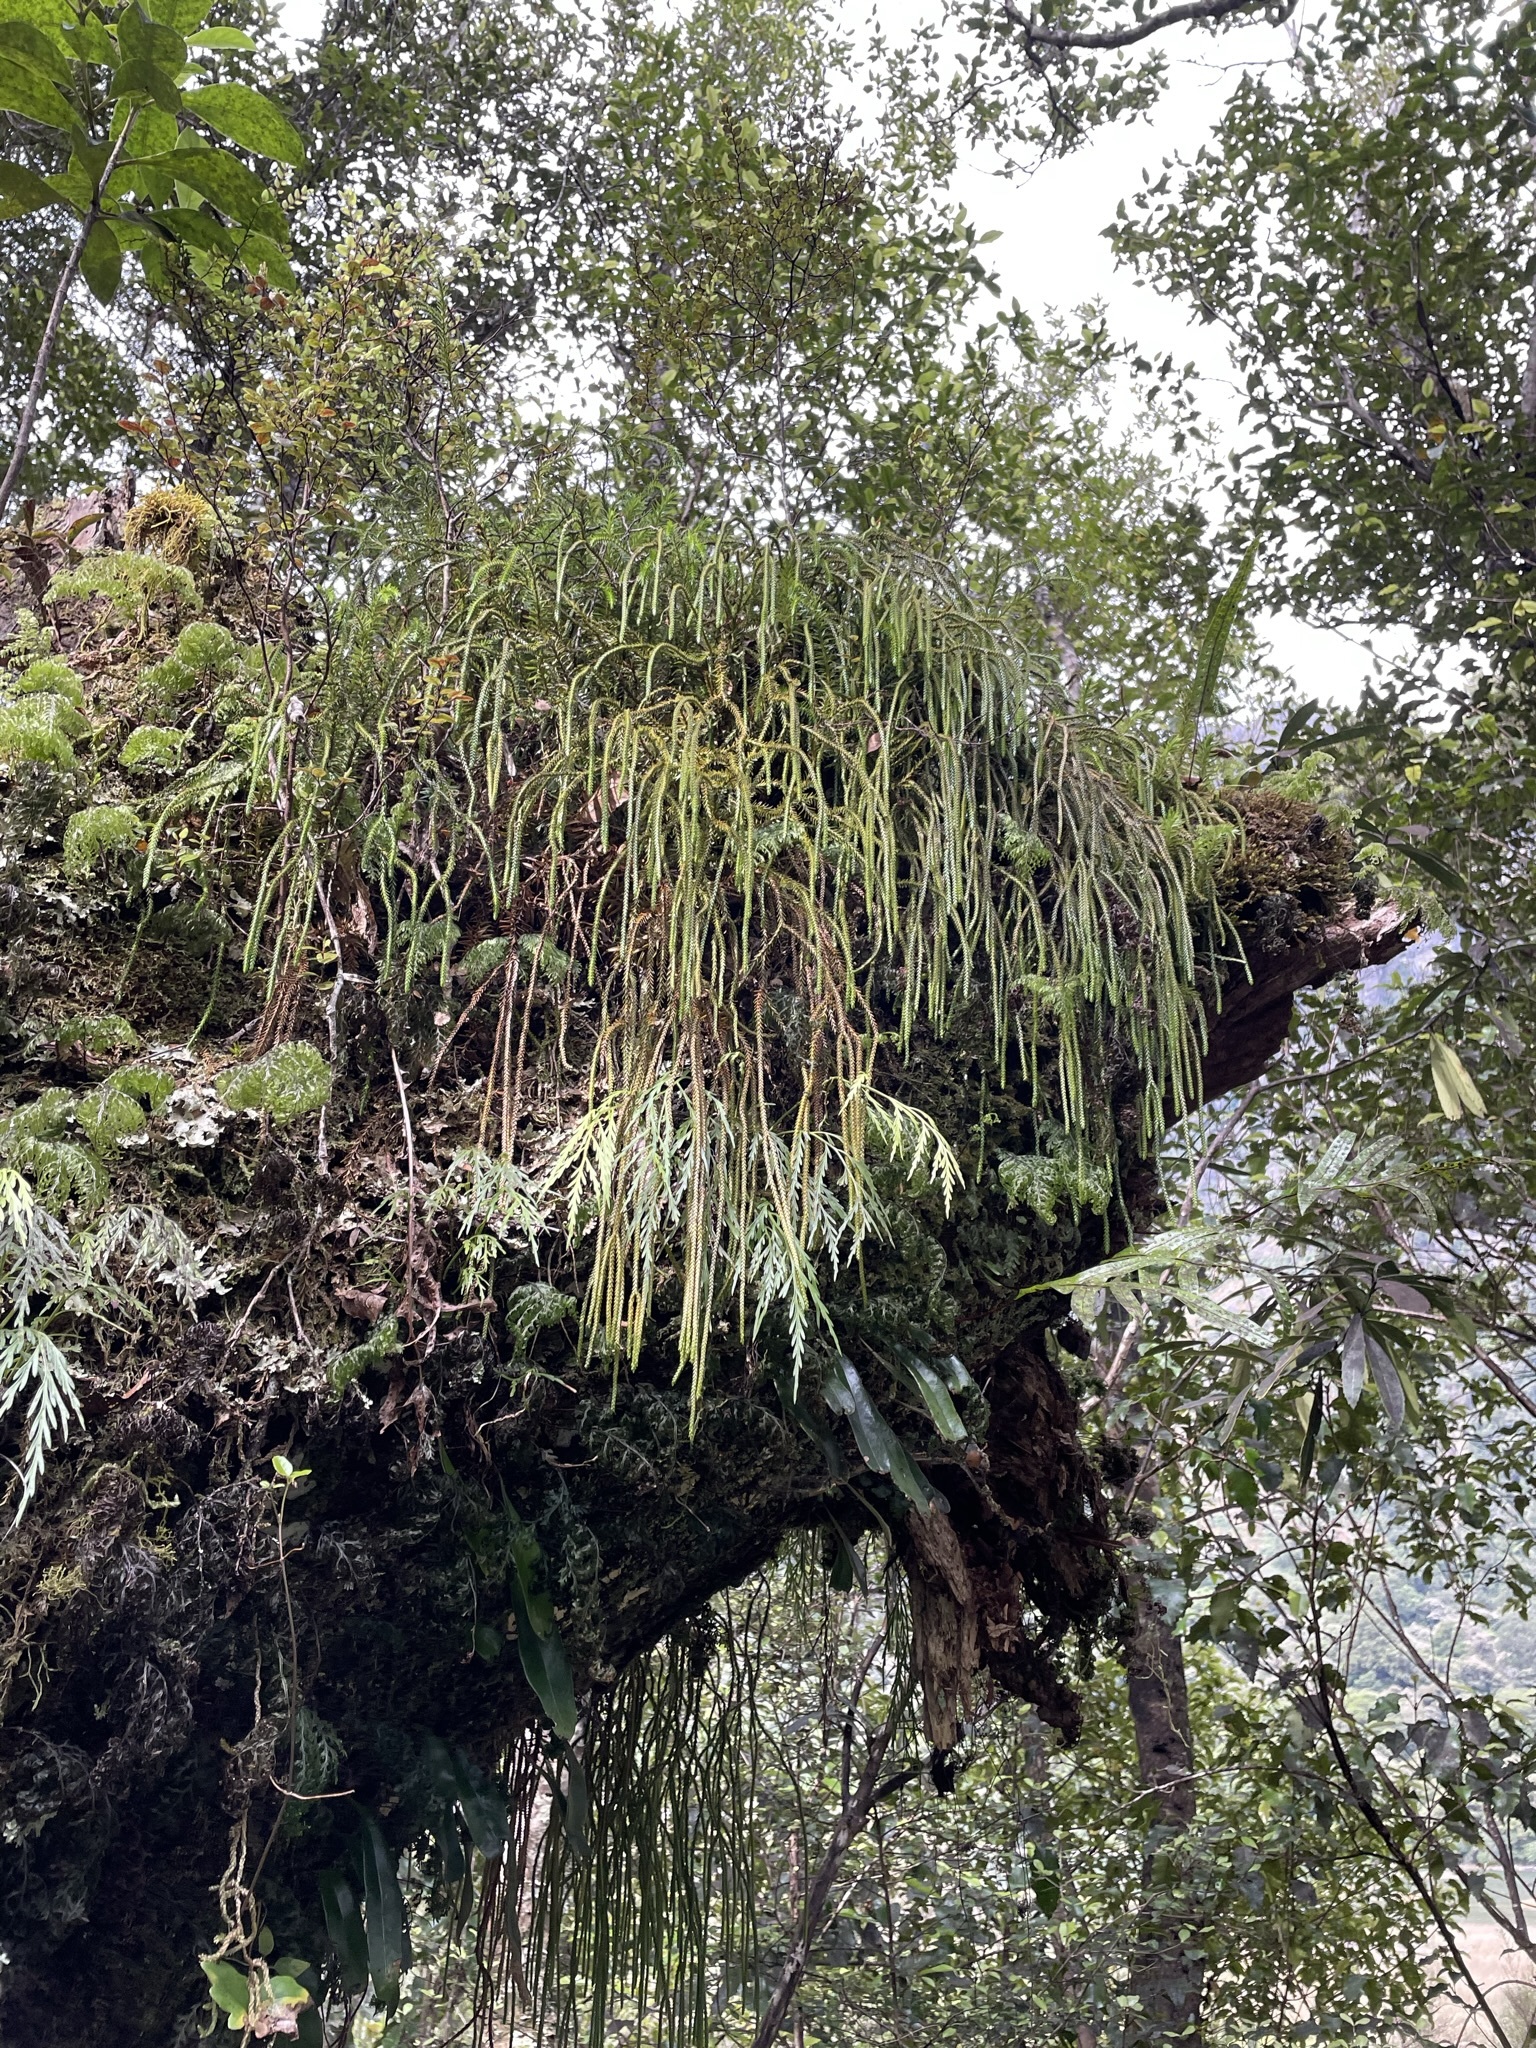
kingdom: Plantae
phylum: Tracheophyta
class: Lycopodiopsida
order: Lycopodiales
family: Lycopodiaceae
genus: Phlegmariurus
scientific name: Phlegmariurus varius
